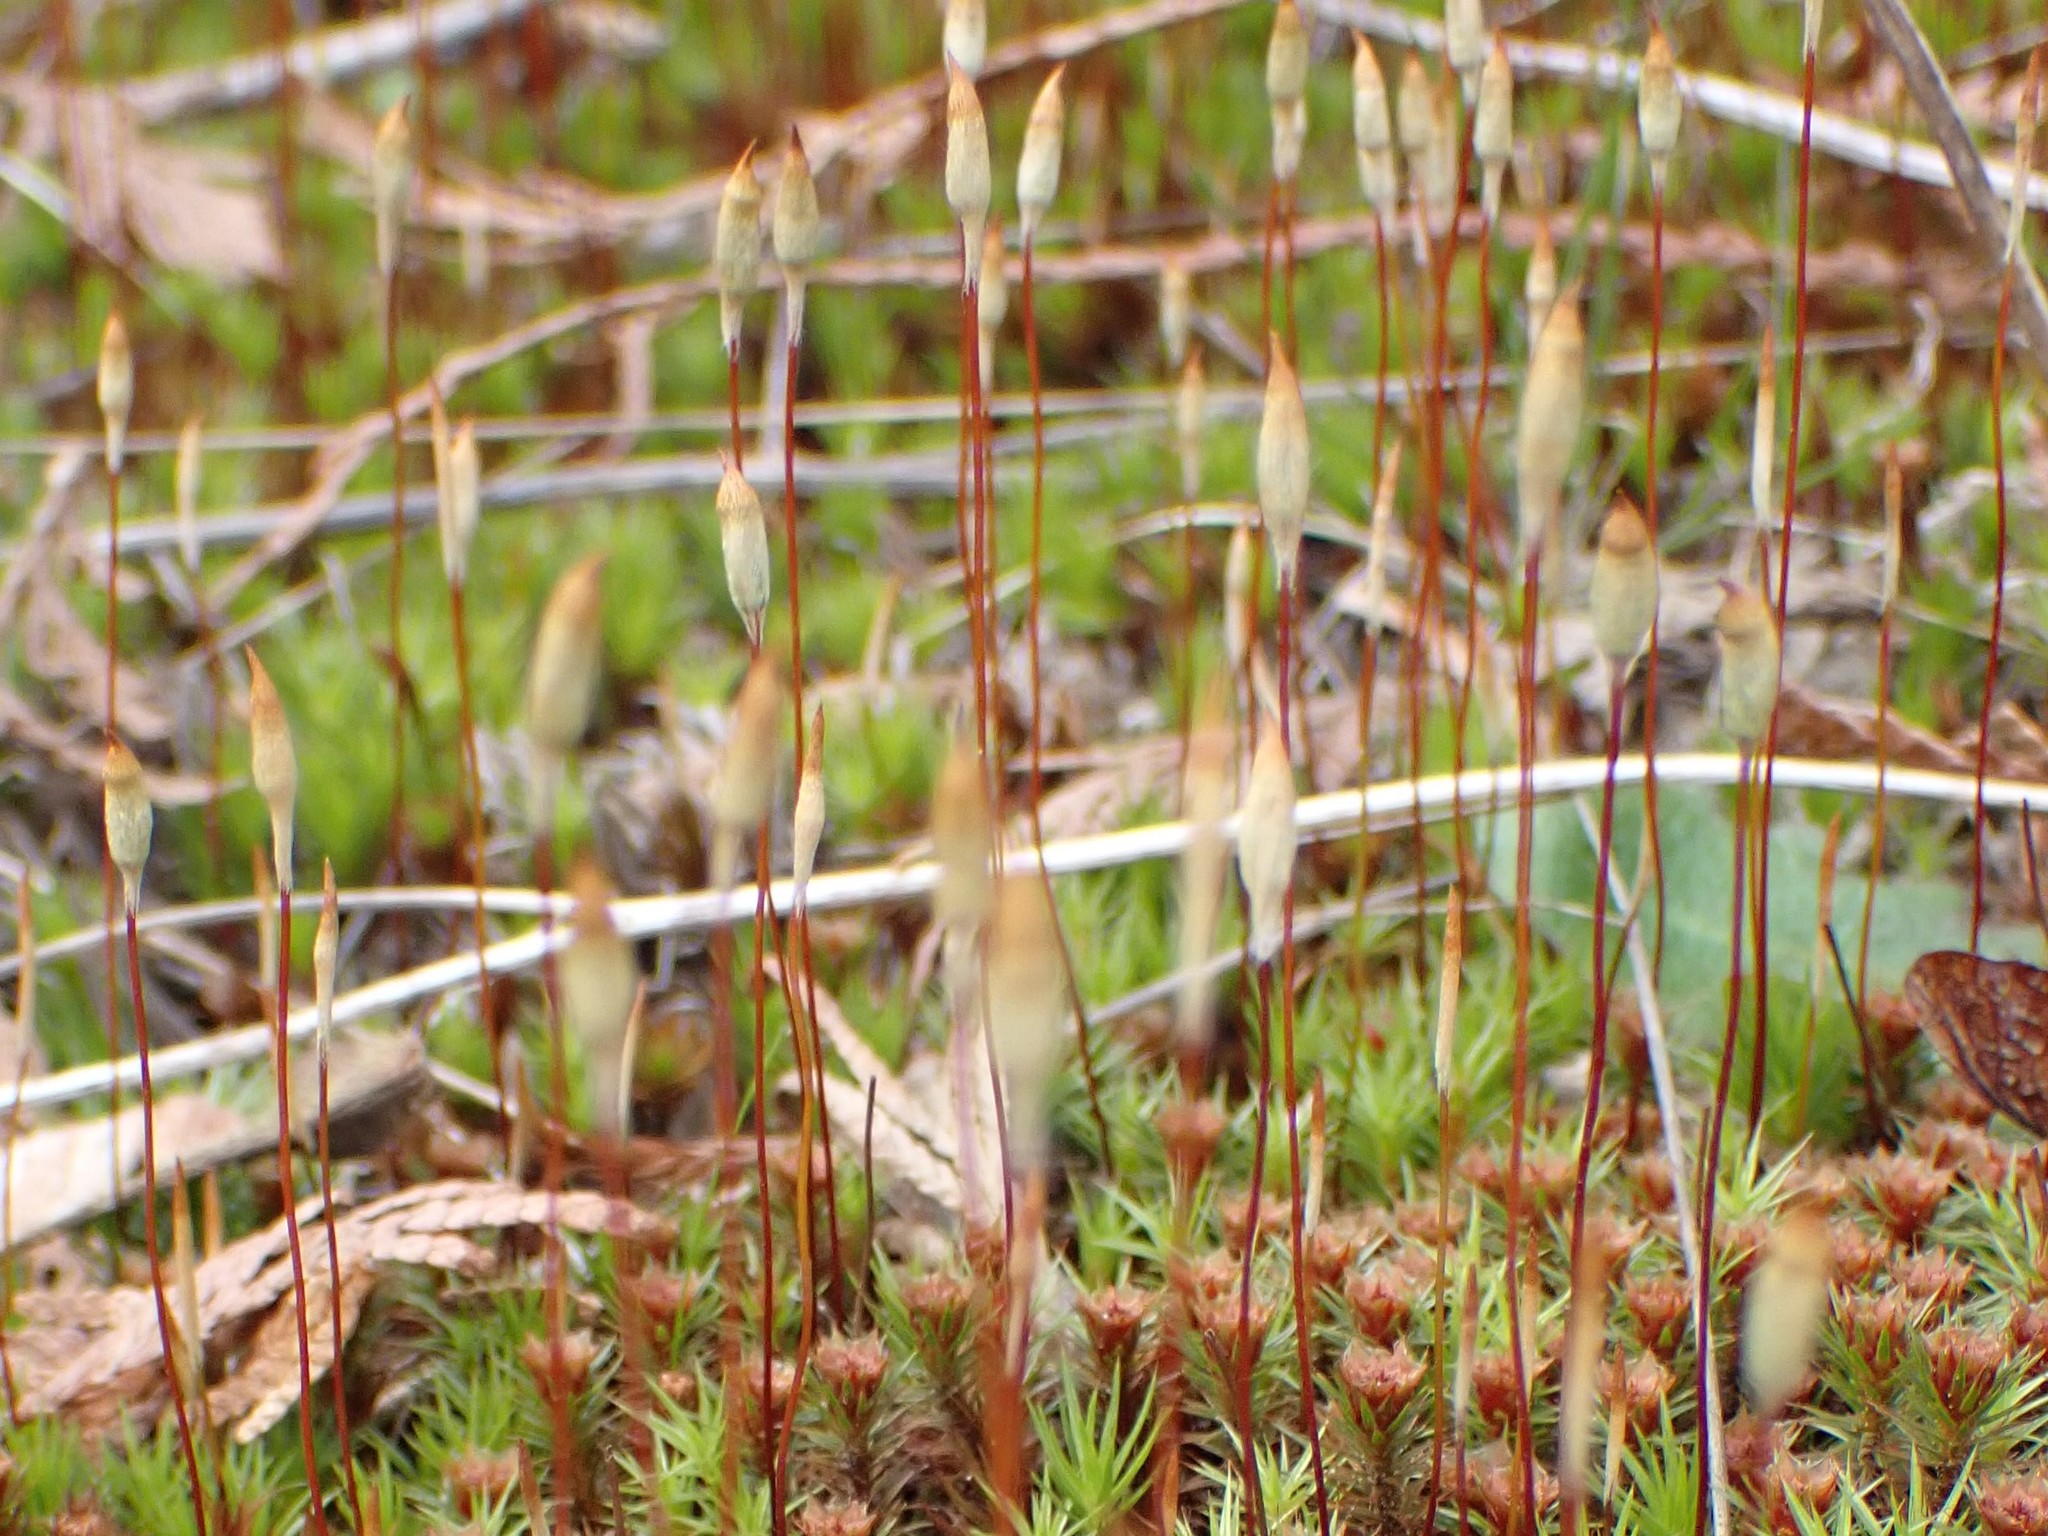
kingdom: Plantae
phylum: Bryophyta
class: Polytrichopsida
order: Polytrichales
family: Polytrichaceae
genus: Polytrichum
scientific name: Polytrichum juniperinum
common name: Juniper haircap moss
